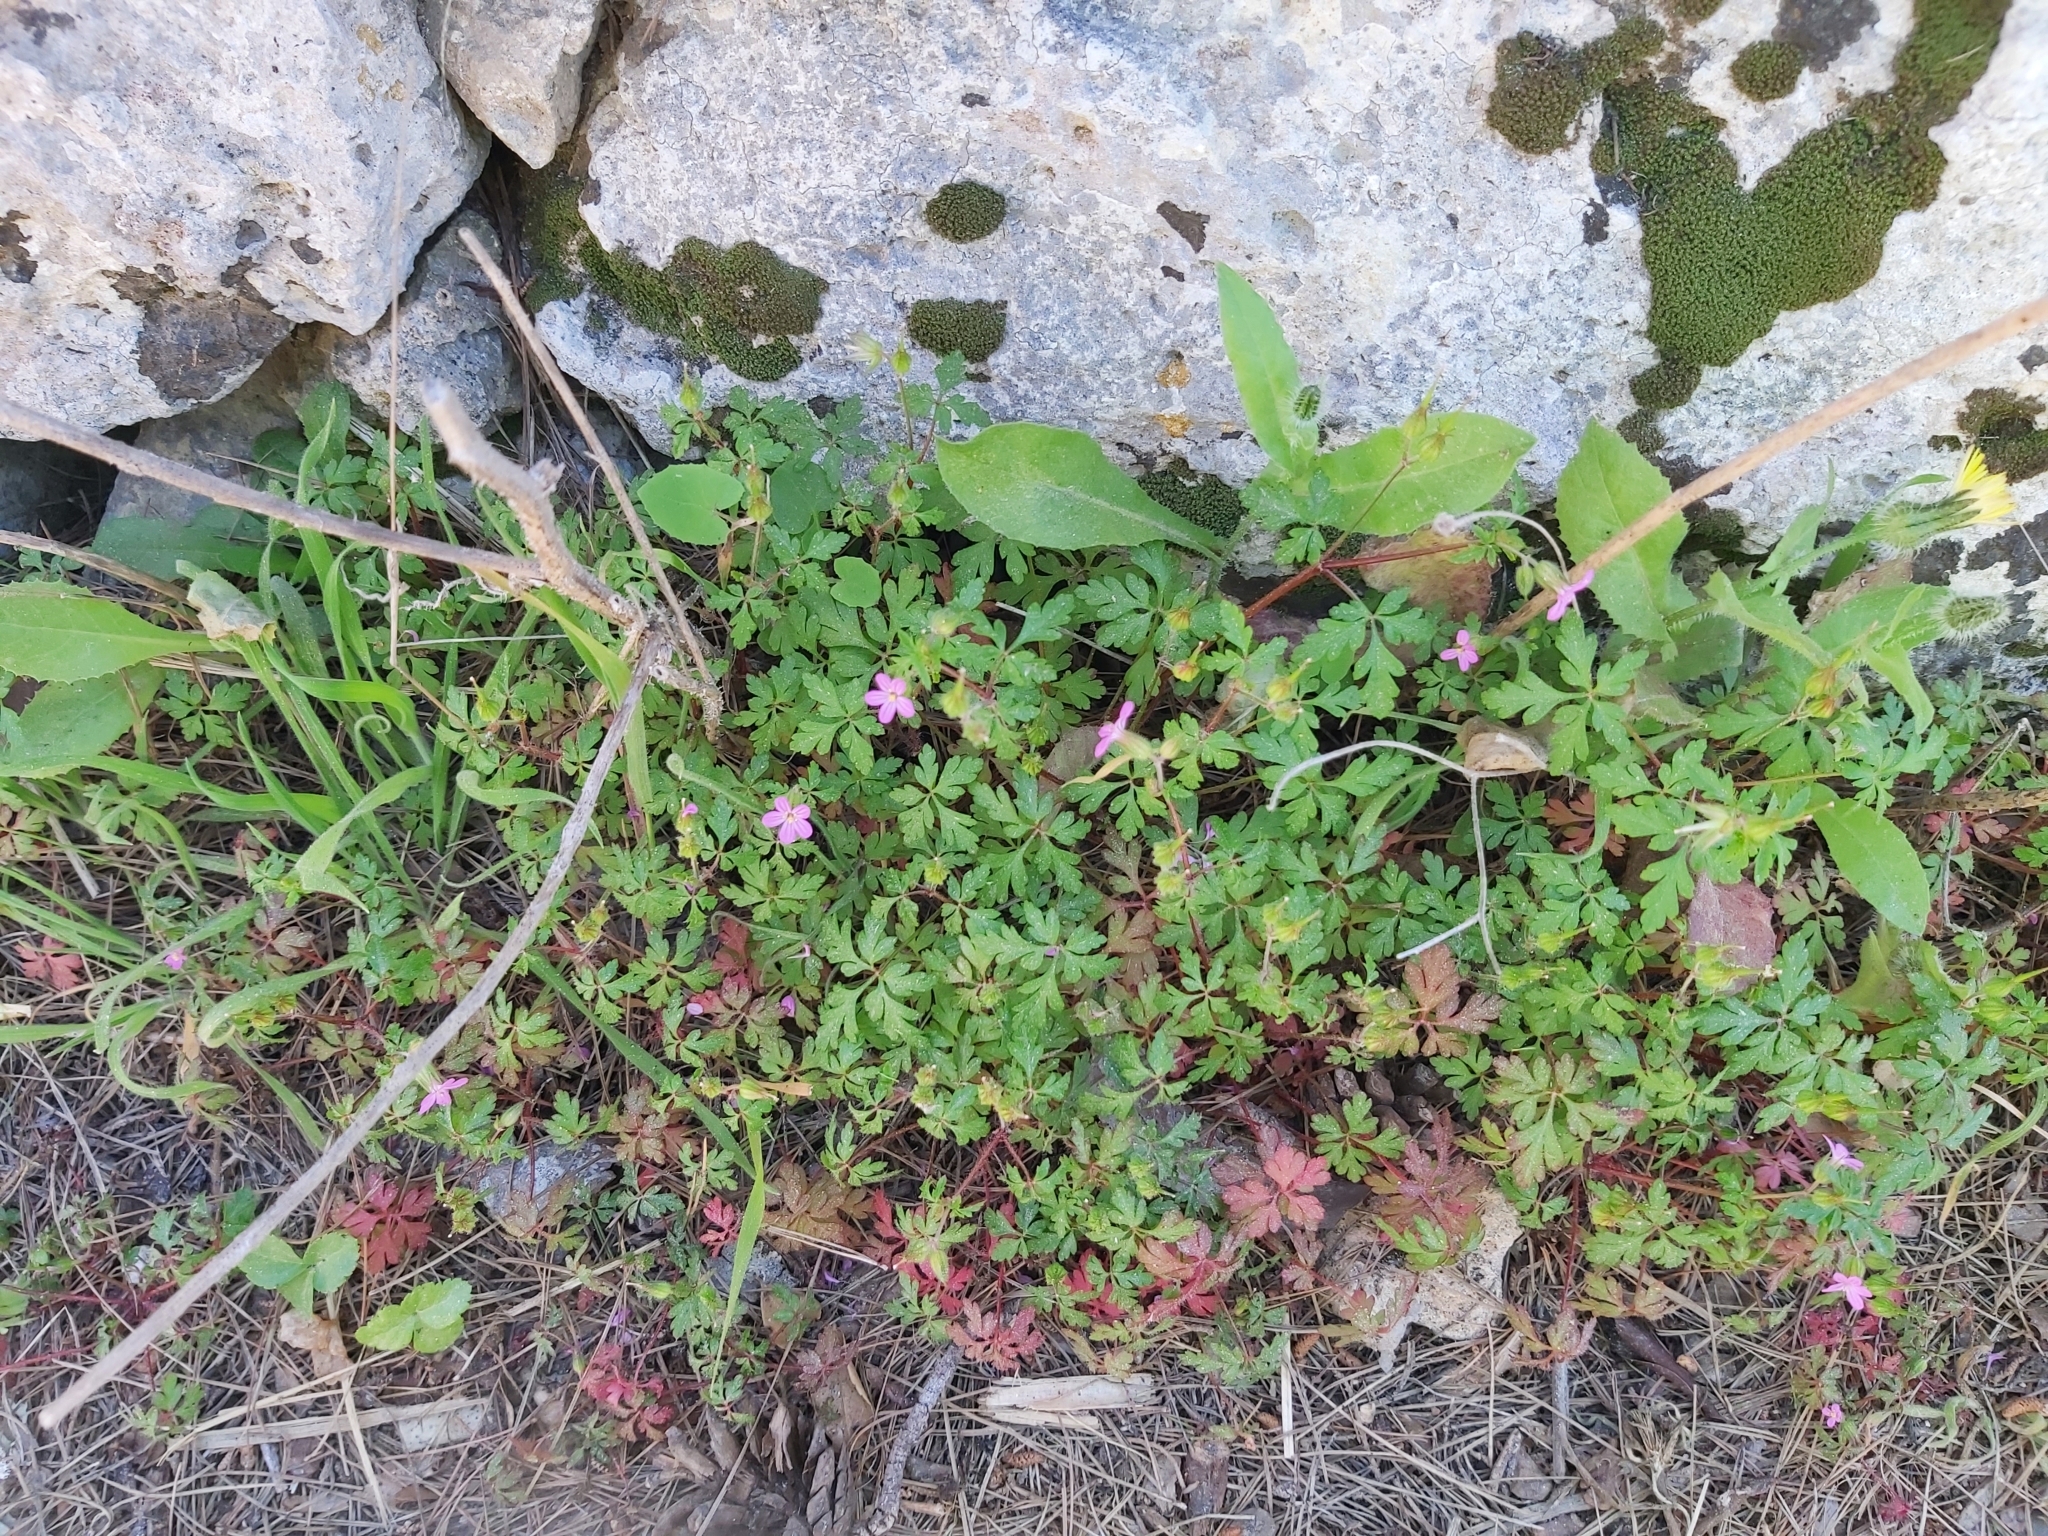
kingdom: Plantae
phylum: Tracheophyta
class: Magnoliopsida
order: Geraniales
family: Geraniaceae
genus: Geranium
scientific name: Geranium purpureum
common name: Little-robin
